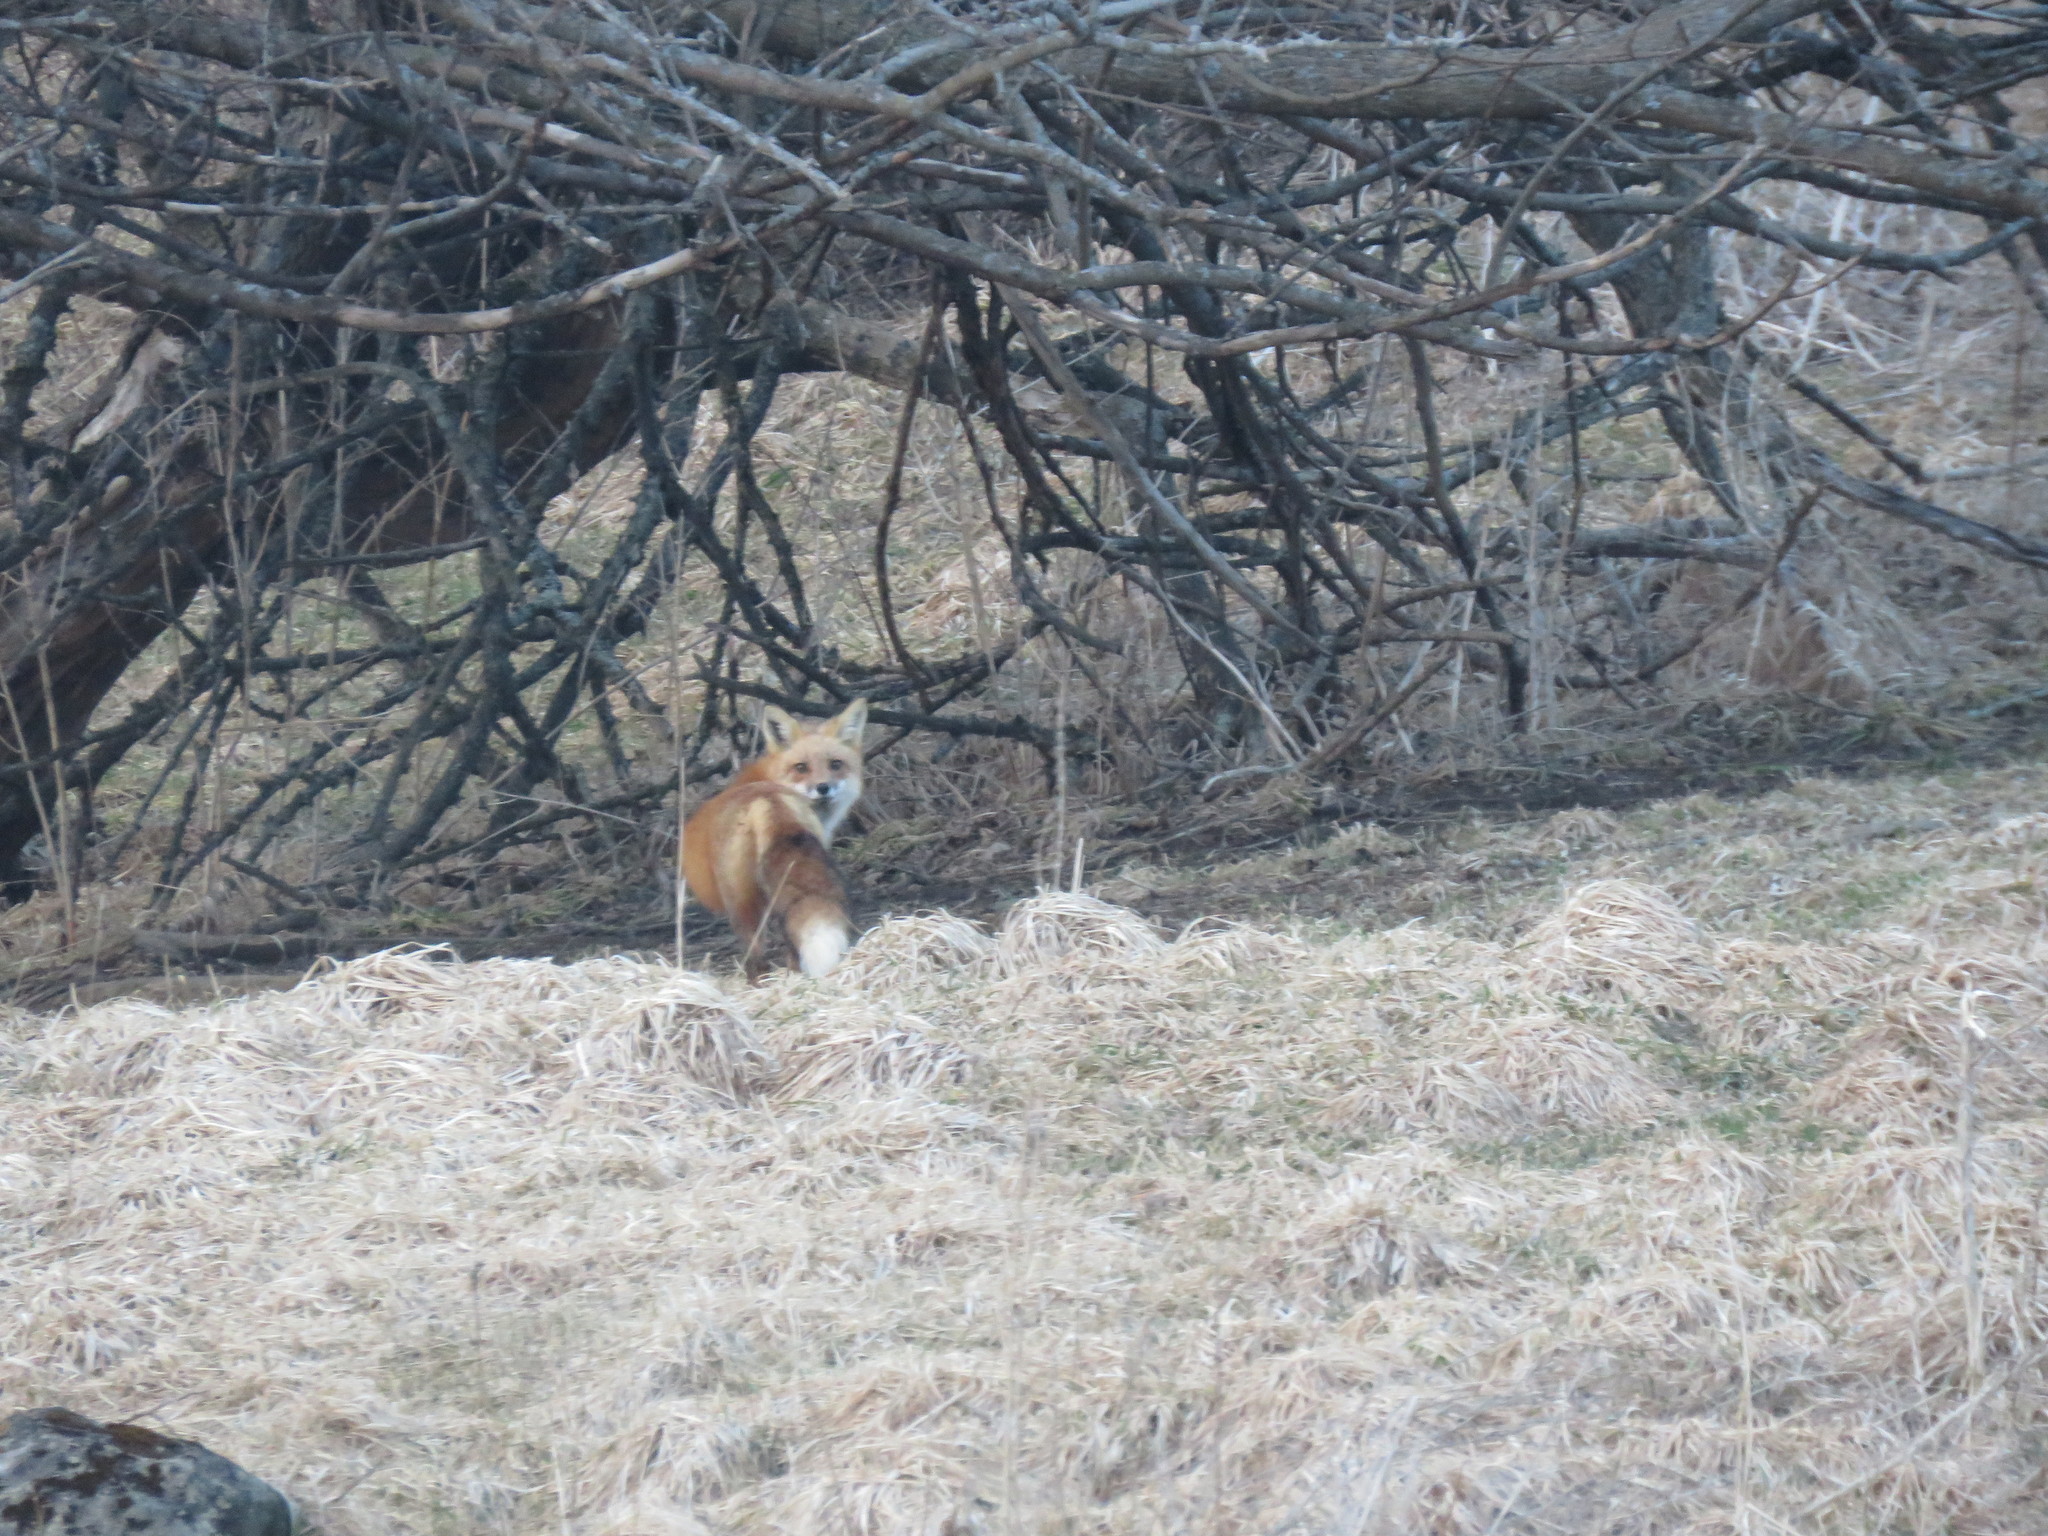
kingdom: Animalia
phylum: Chordata
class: Mammalia
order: Carnivora
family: Canidae
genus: Vulpes
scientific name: Vulpes vulpes
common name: Red fox
